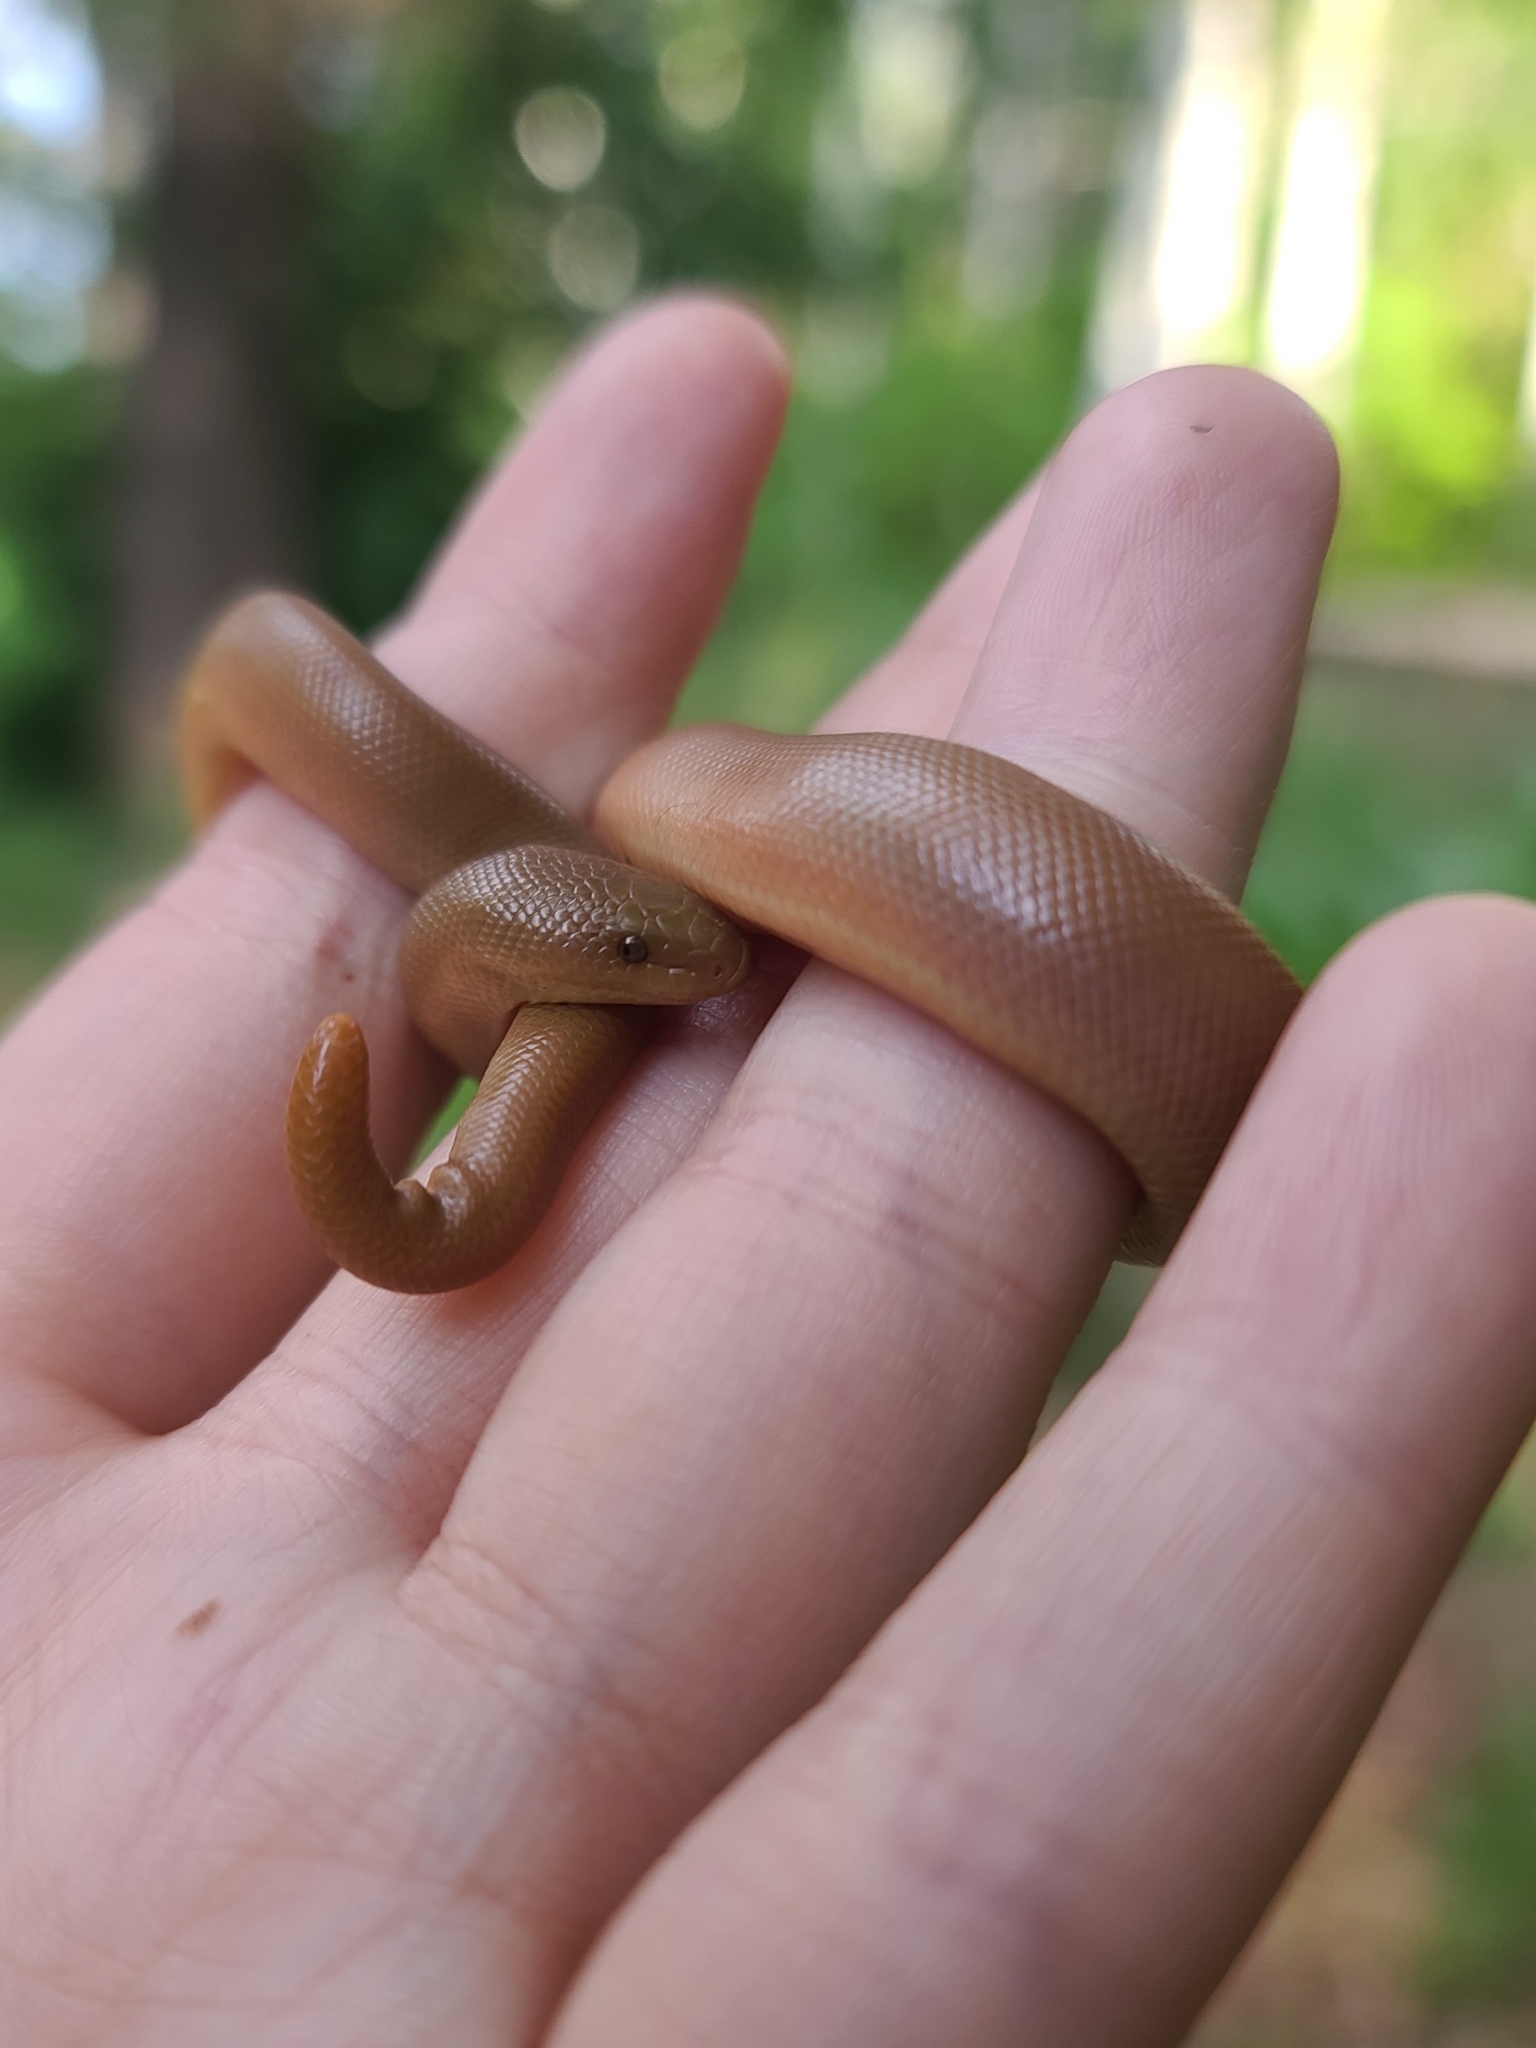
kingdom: Animalia
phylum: Chordata
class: Squamata
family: Boidae
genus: Charina
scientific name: Charina bottae
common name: Northern rubber boa
